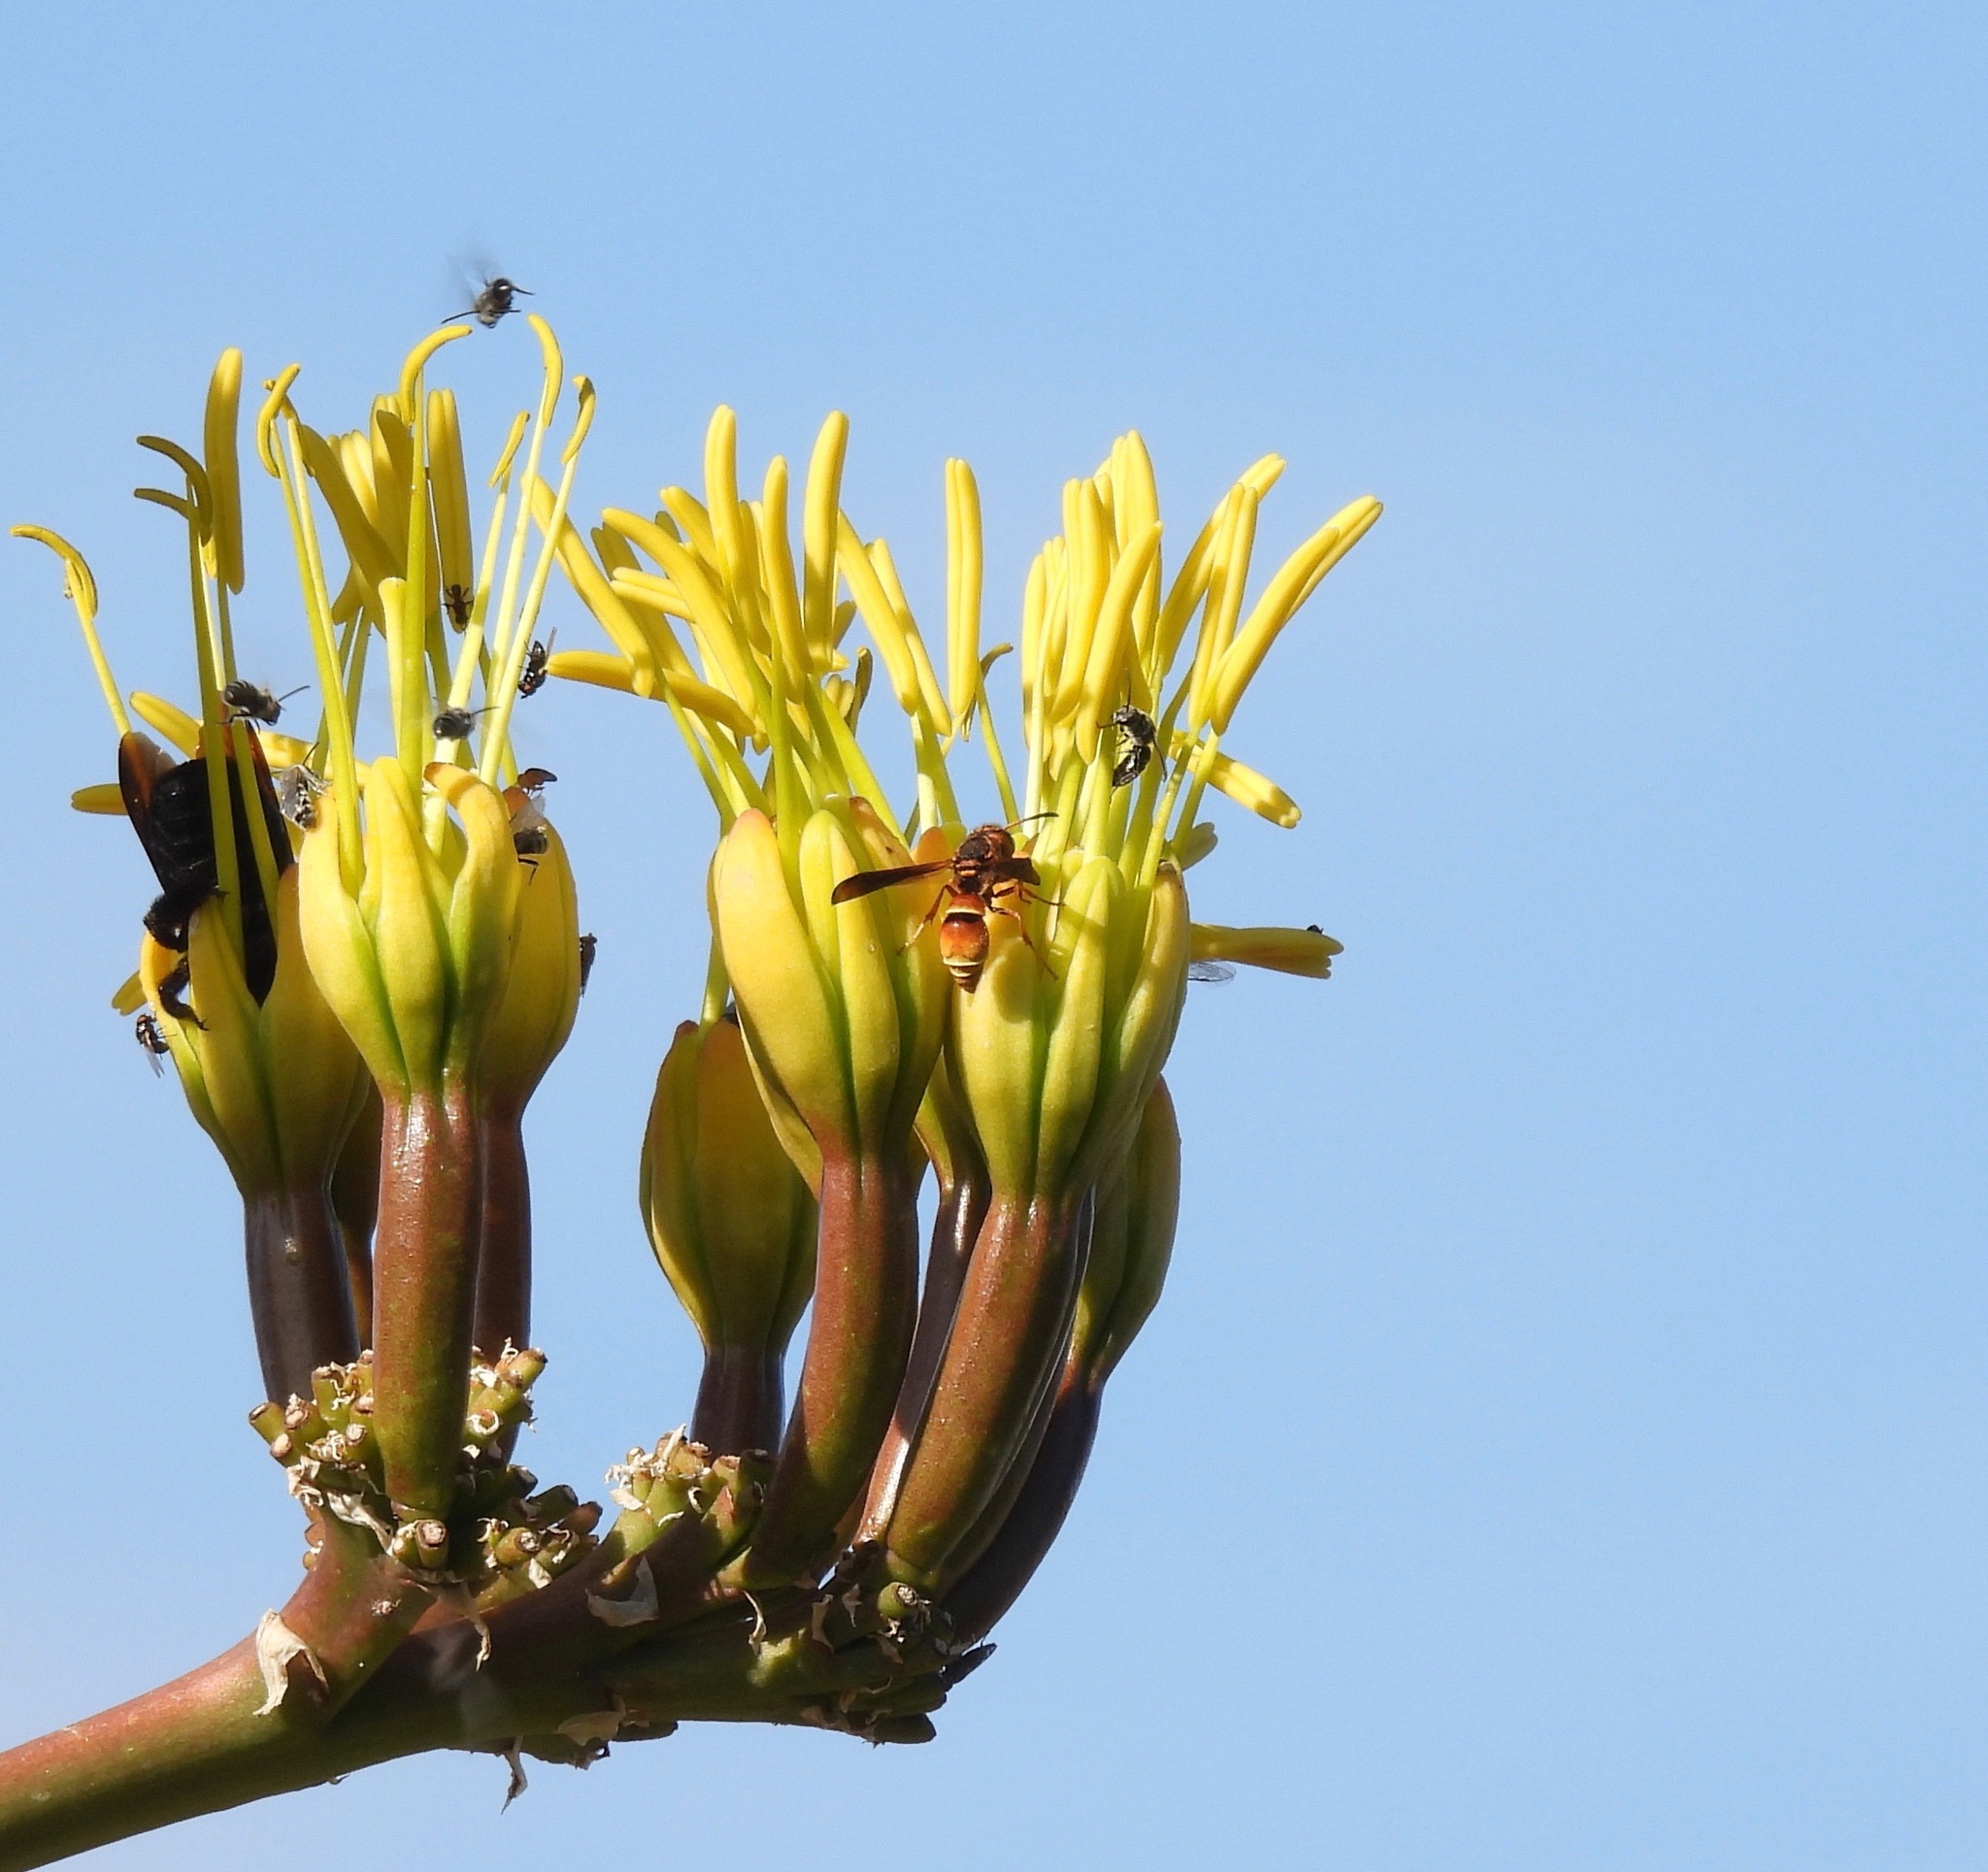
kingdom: Animalia
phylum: Arthropoda
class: Insecta
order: Hymenoptera
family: Eumenidae
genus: Smeringodynerus
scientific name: Smeringodynerus morelios
